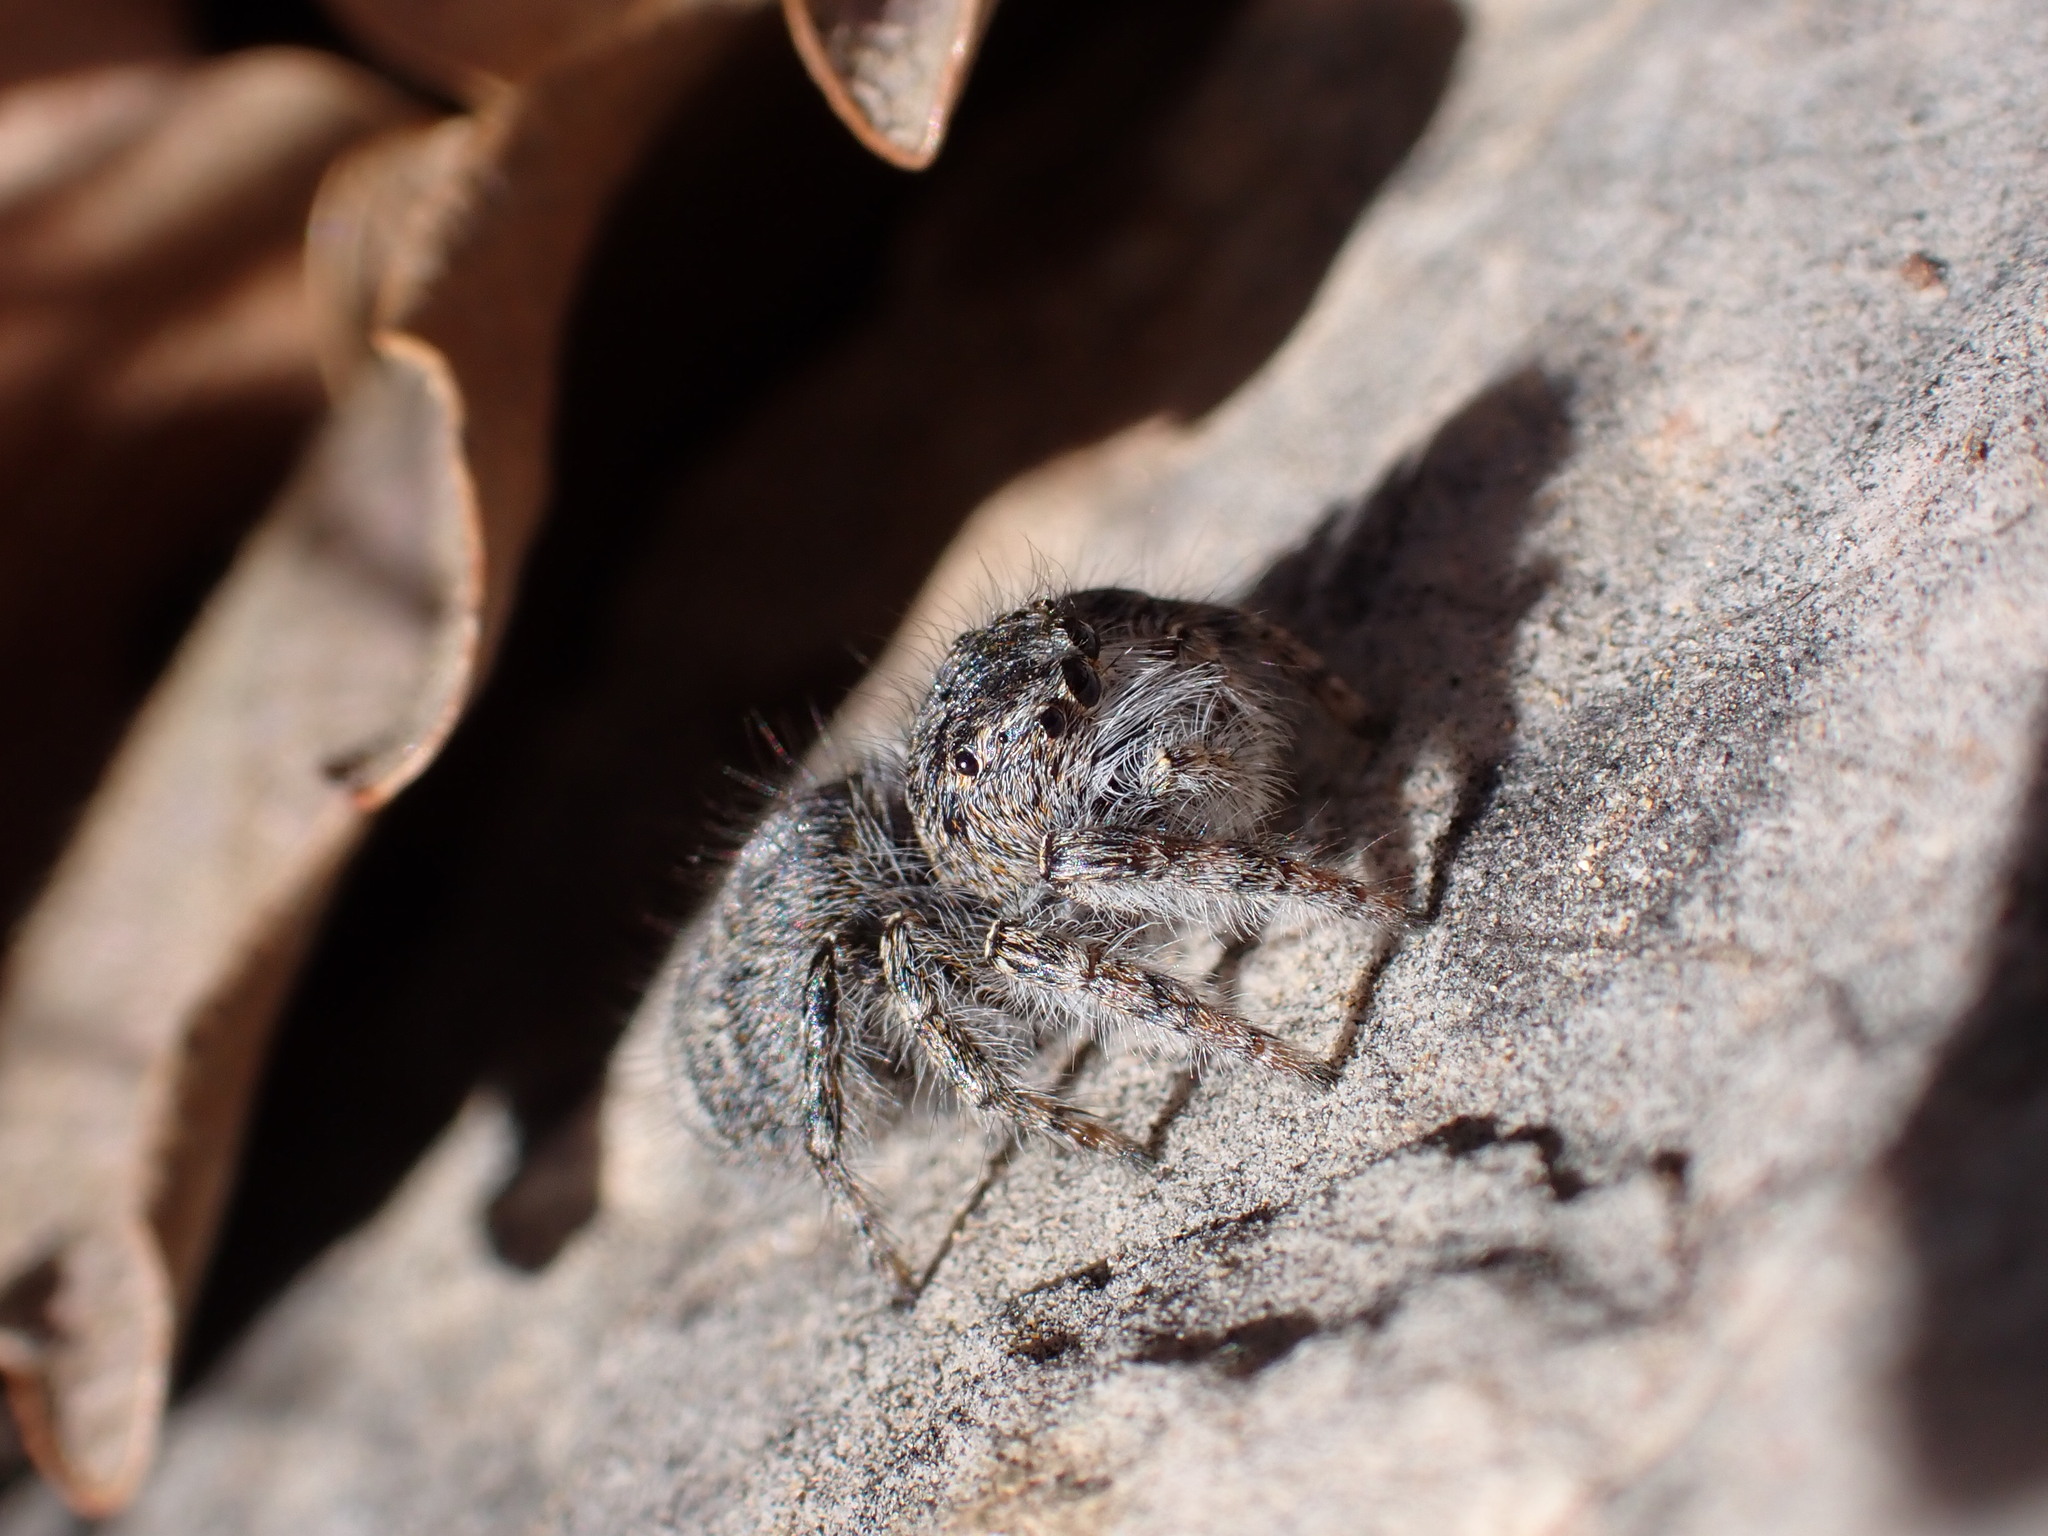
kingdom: Animalia
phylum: Arthropoda
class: Arachnida
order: Araneae
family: Salticidae
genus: Philaeus
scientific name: Philaeus chrysops
